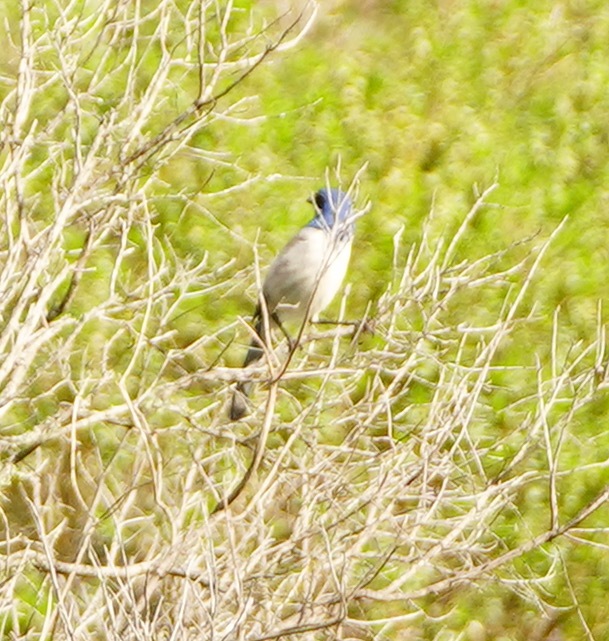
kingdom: Animalia
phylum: Chordata
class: Aves
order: Passeriformes
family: Corvidae
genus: Aphelocoma
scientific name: Aphelocoma californica
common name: California scrub-jay
